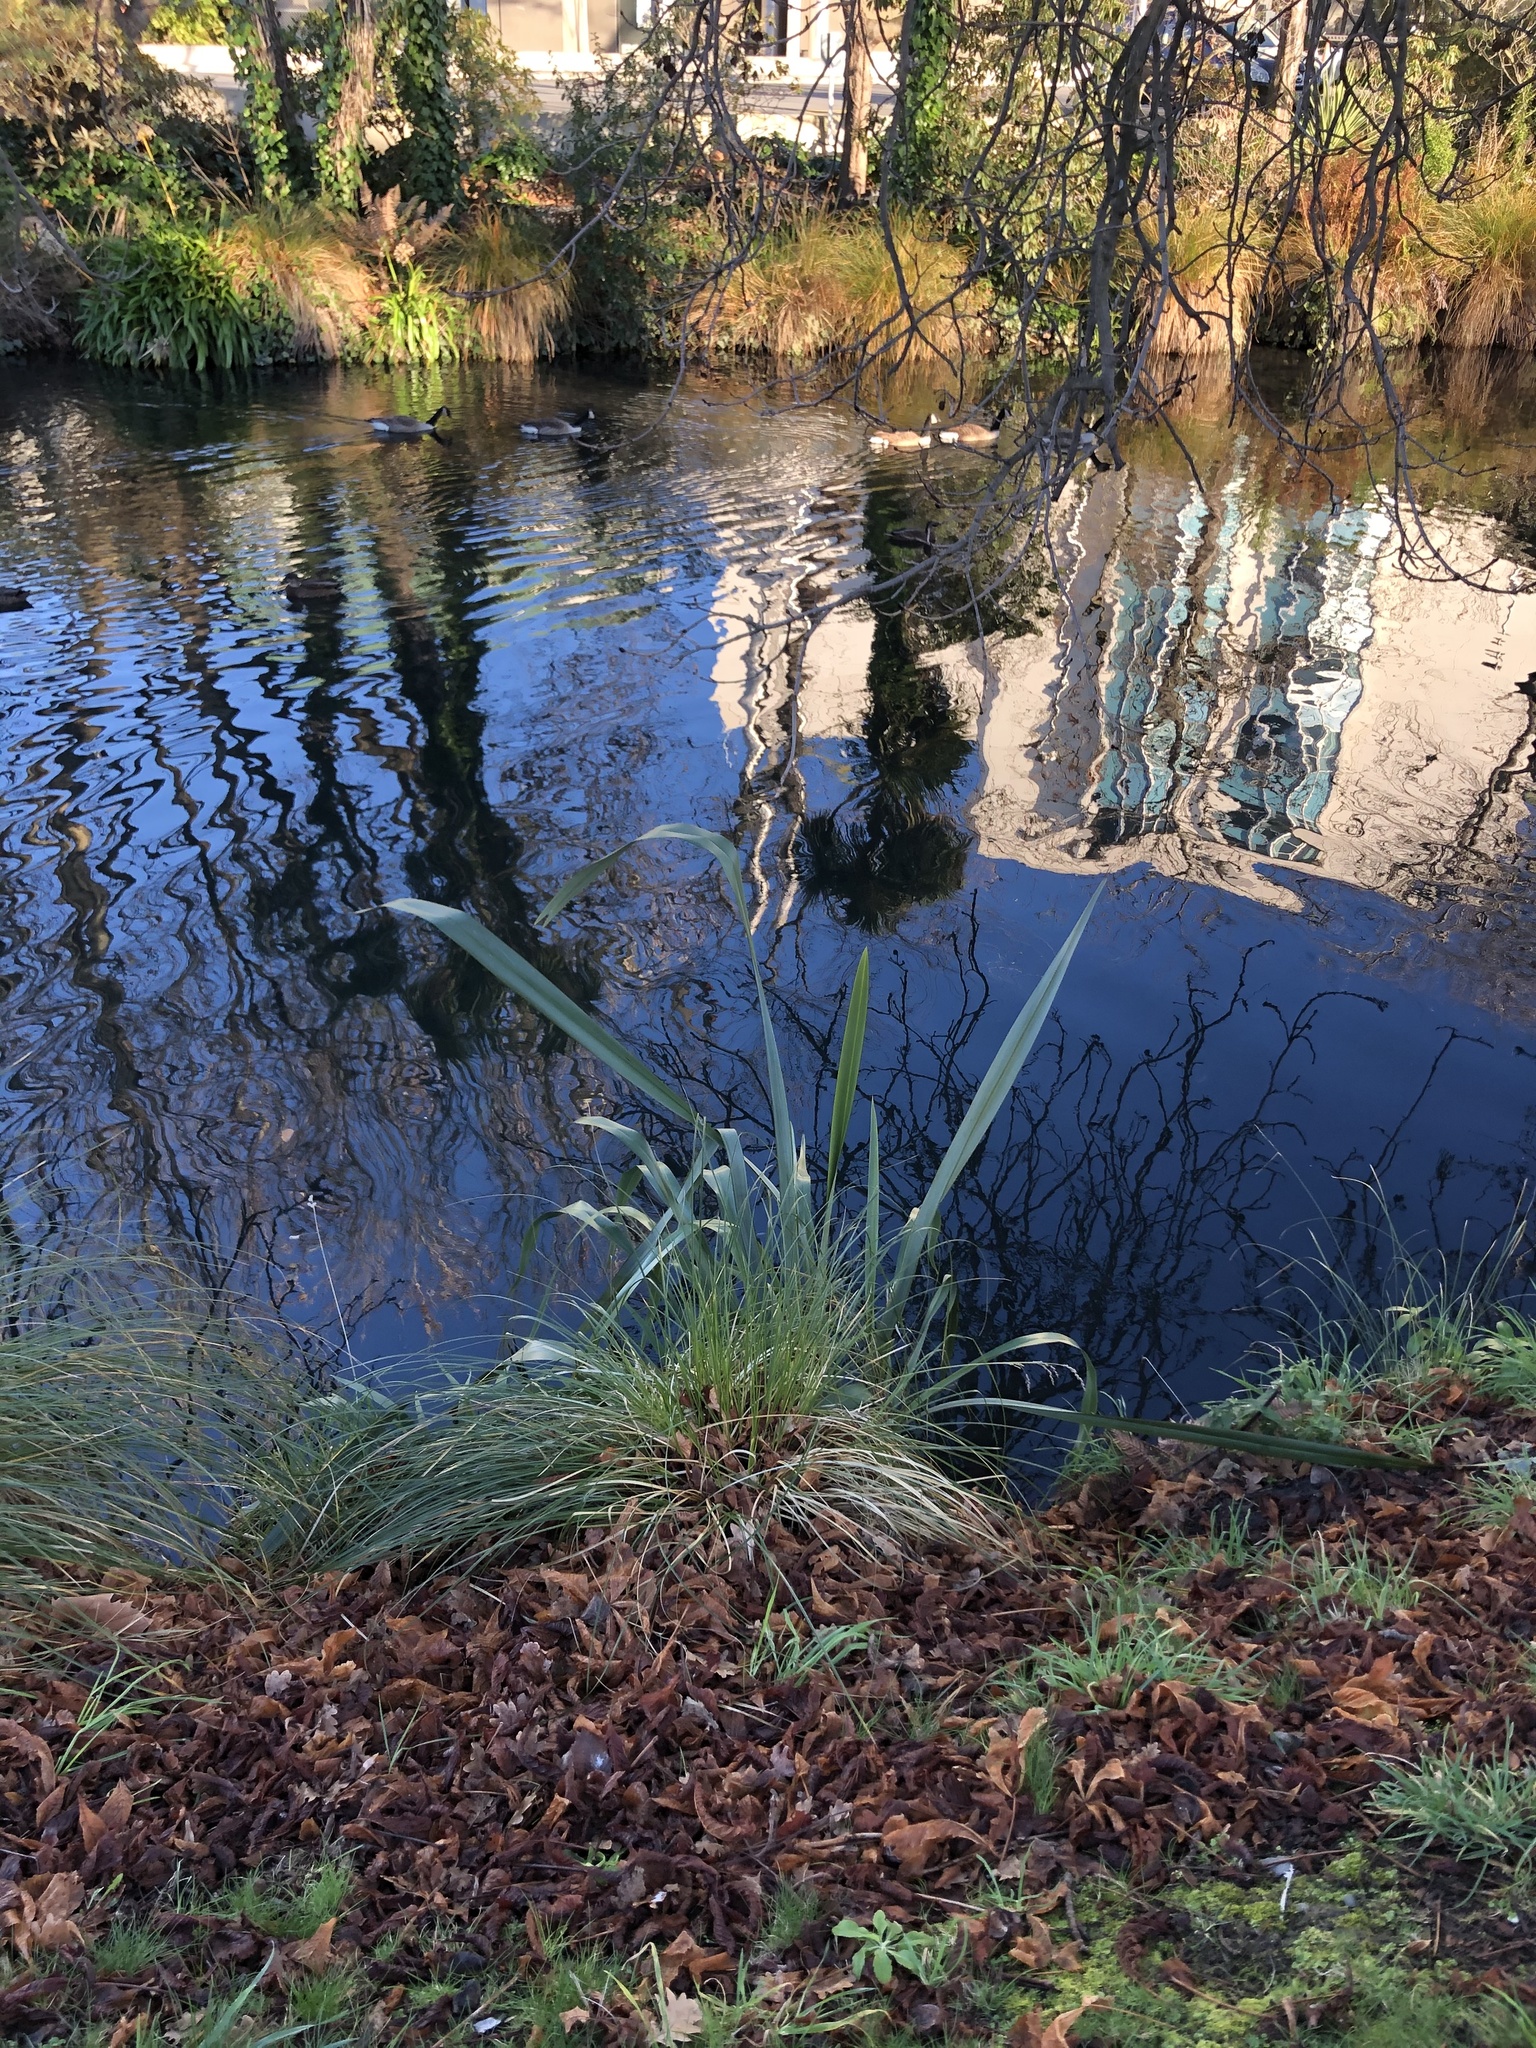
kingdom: Plantae
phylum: Tracheophyta
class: Liliopsida
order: Asparagales
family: Asphodelaceae
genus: Phormium
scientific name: Phormium tenax
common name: New zealand flax
